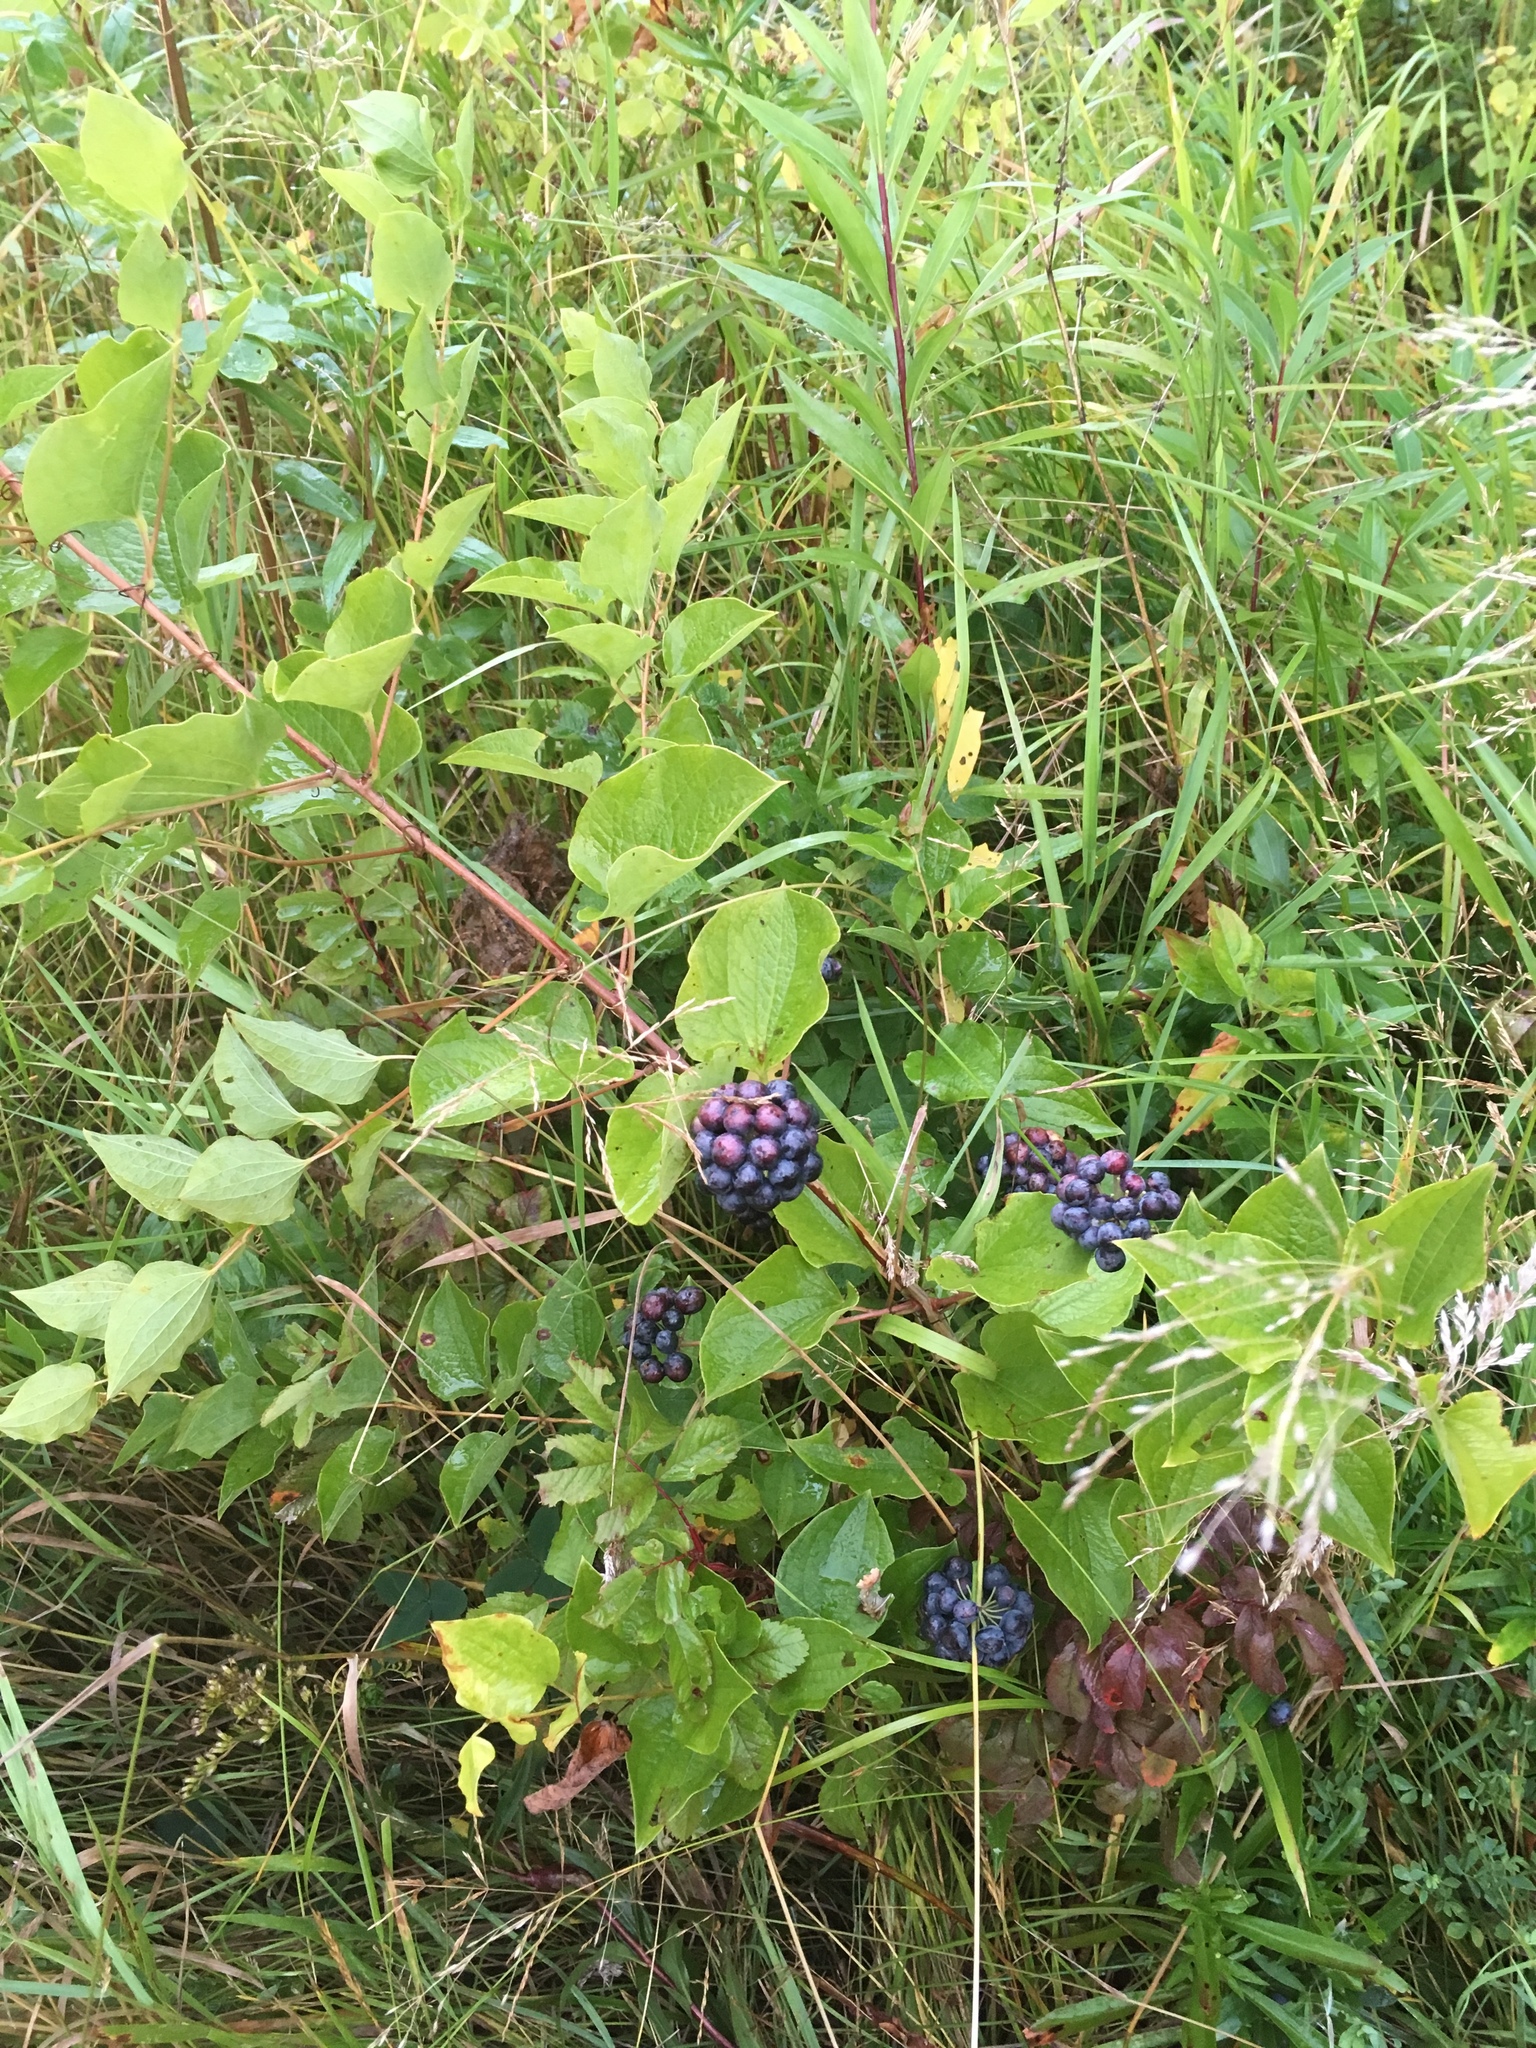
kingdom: Plantae
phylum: Tracheophyta
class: Liliopsida
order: Liliales
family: Smilacaceae
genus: Smilax
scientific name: Smilax lasioneura
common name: Blue ridge carrionflower
